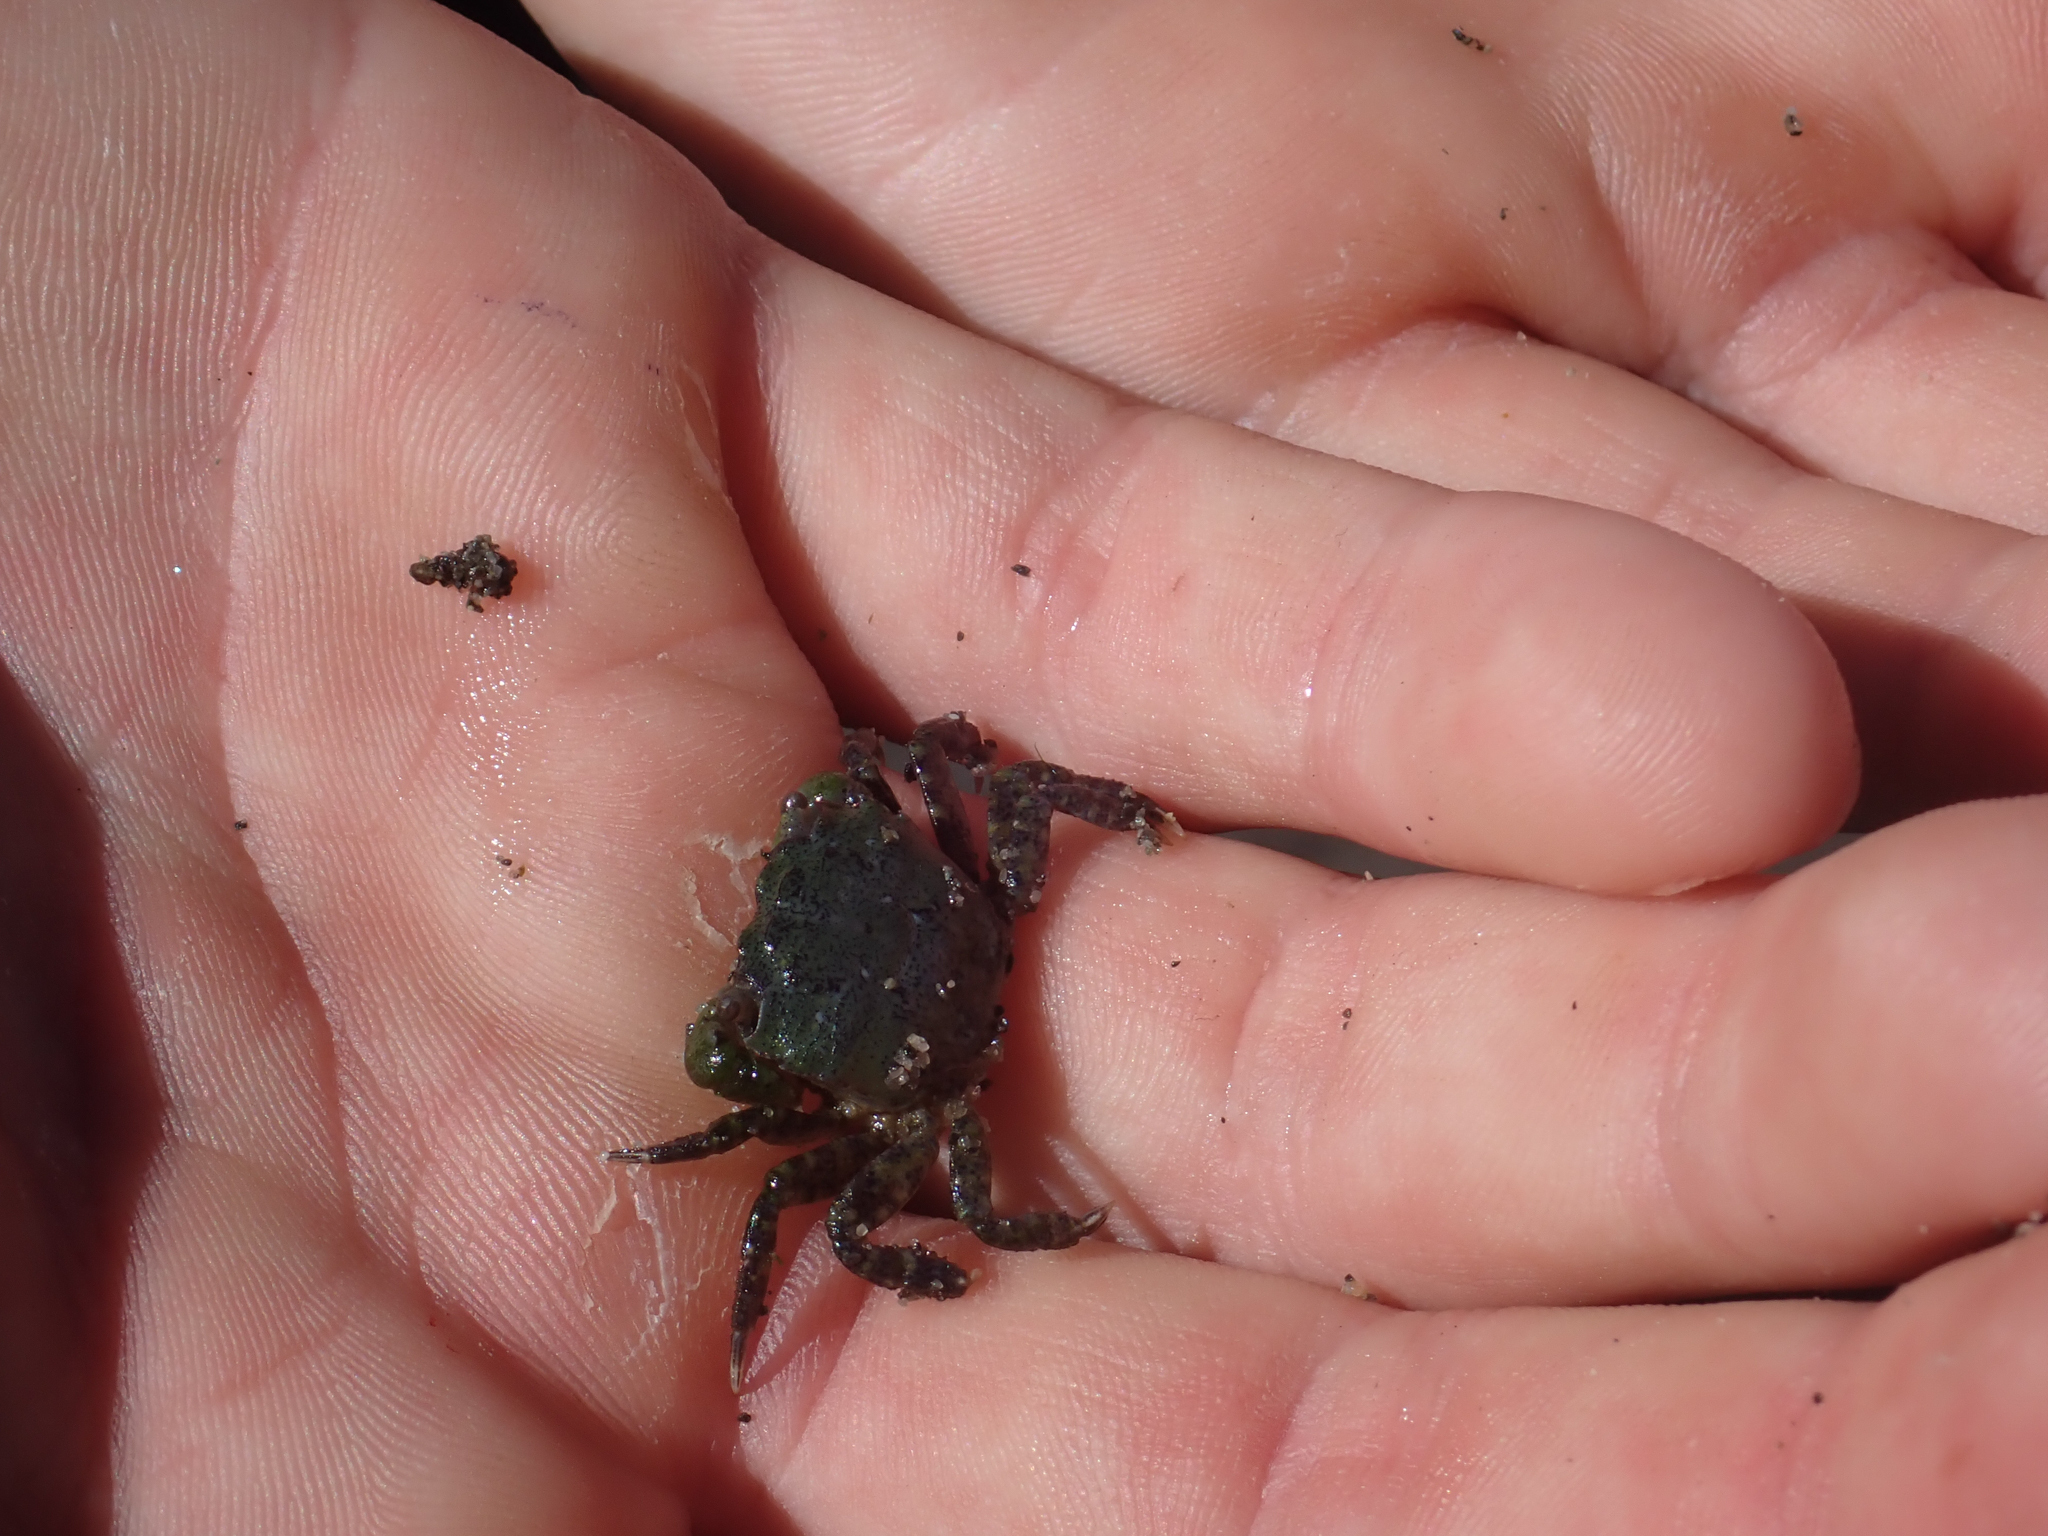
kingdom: Animalia
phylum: Arthropoda
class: Malacostraca
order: Decapoda
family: Varunidae
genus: Hemigrapsus
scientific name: Hemigrapsus oregonensis
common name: Yellow shore crab
